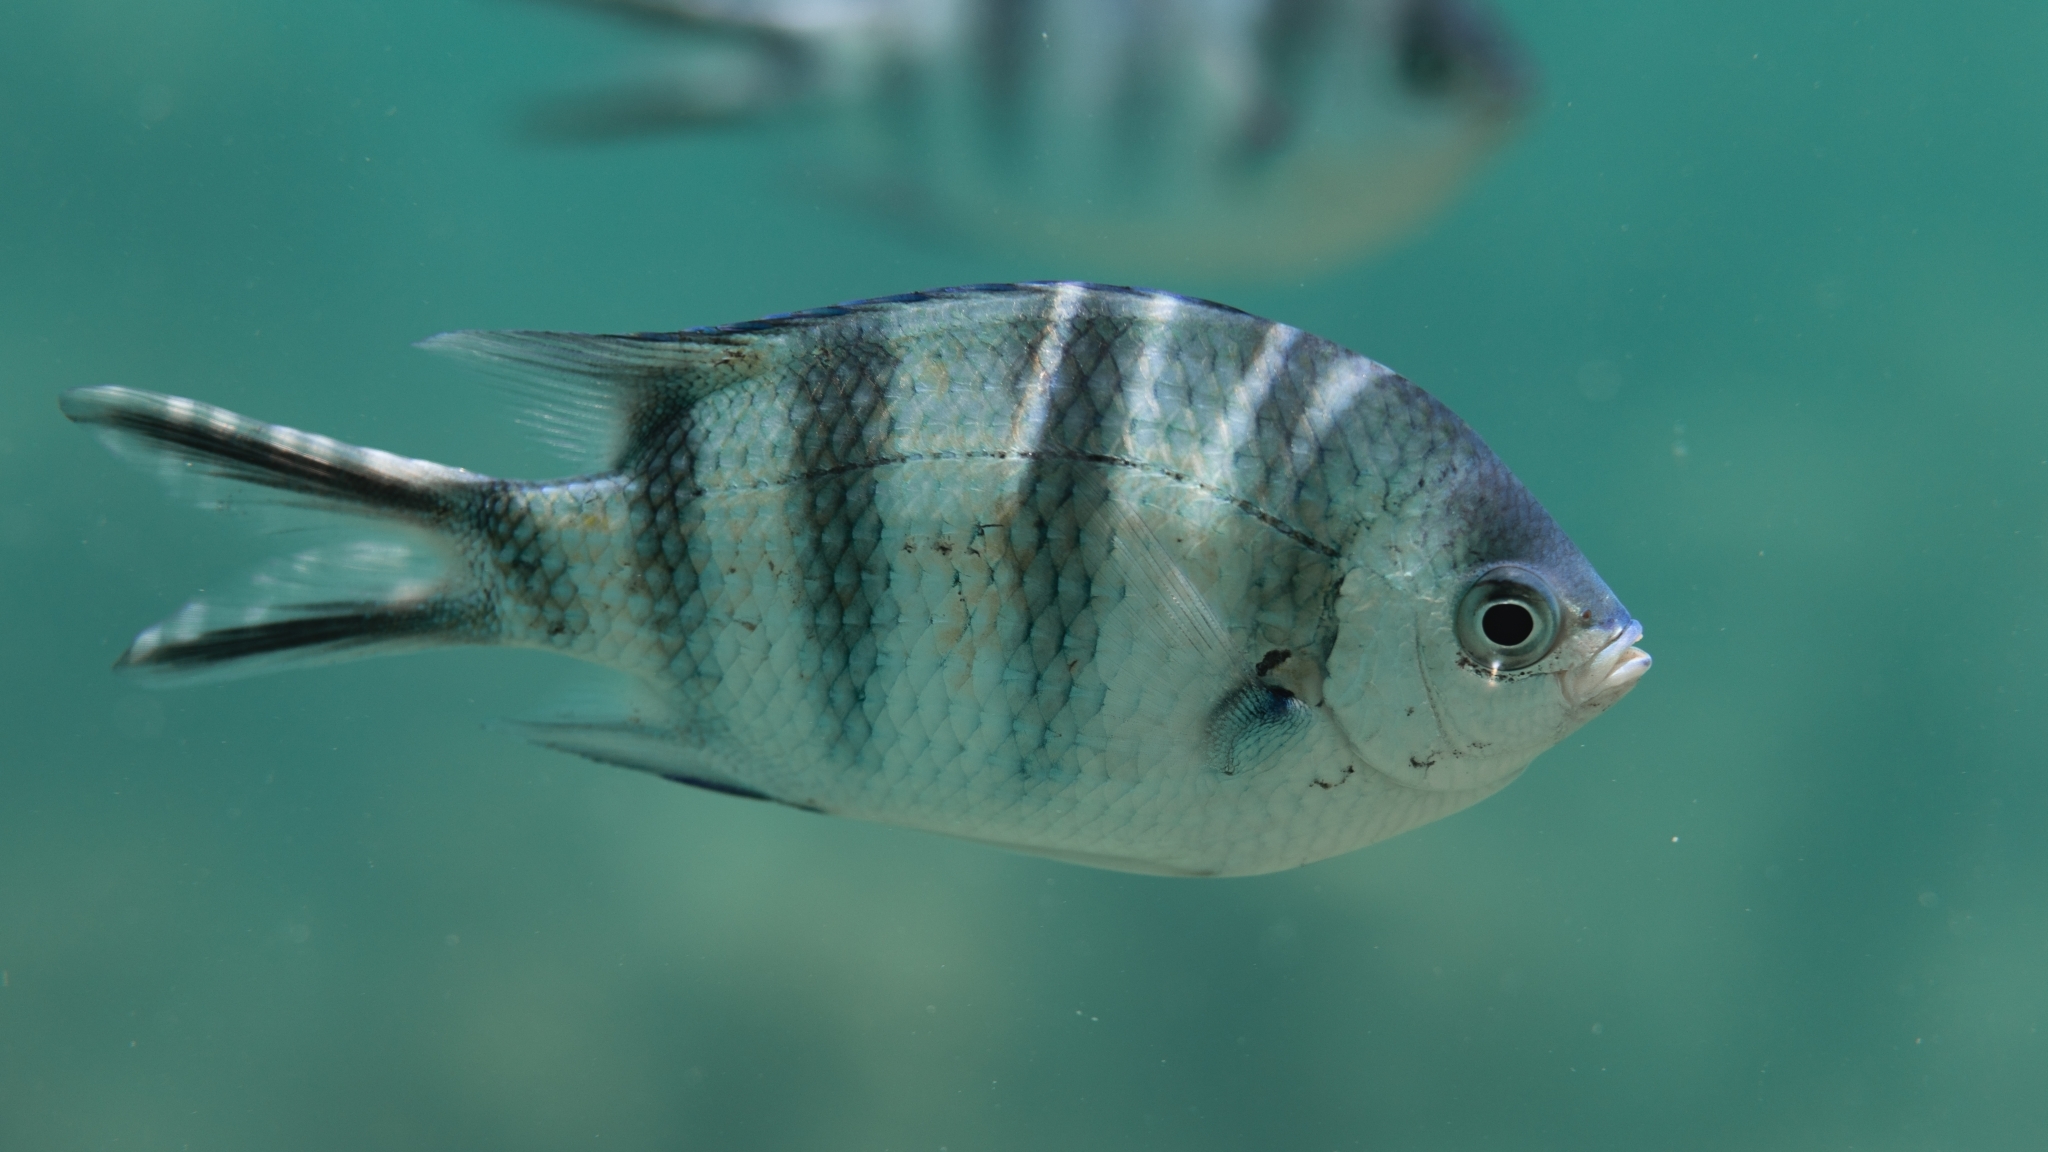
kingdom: Animalia
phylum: Chordata
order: Perciformes
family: Pomacentridae
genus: Abudefduf
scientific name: Abudefduf sexfasciatus
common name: Scissortail sergeant
